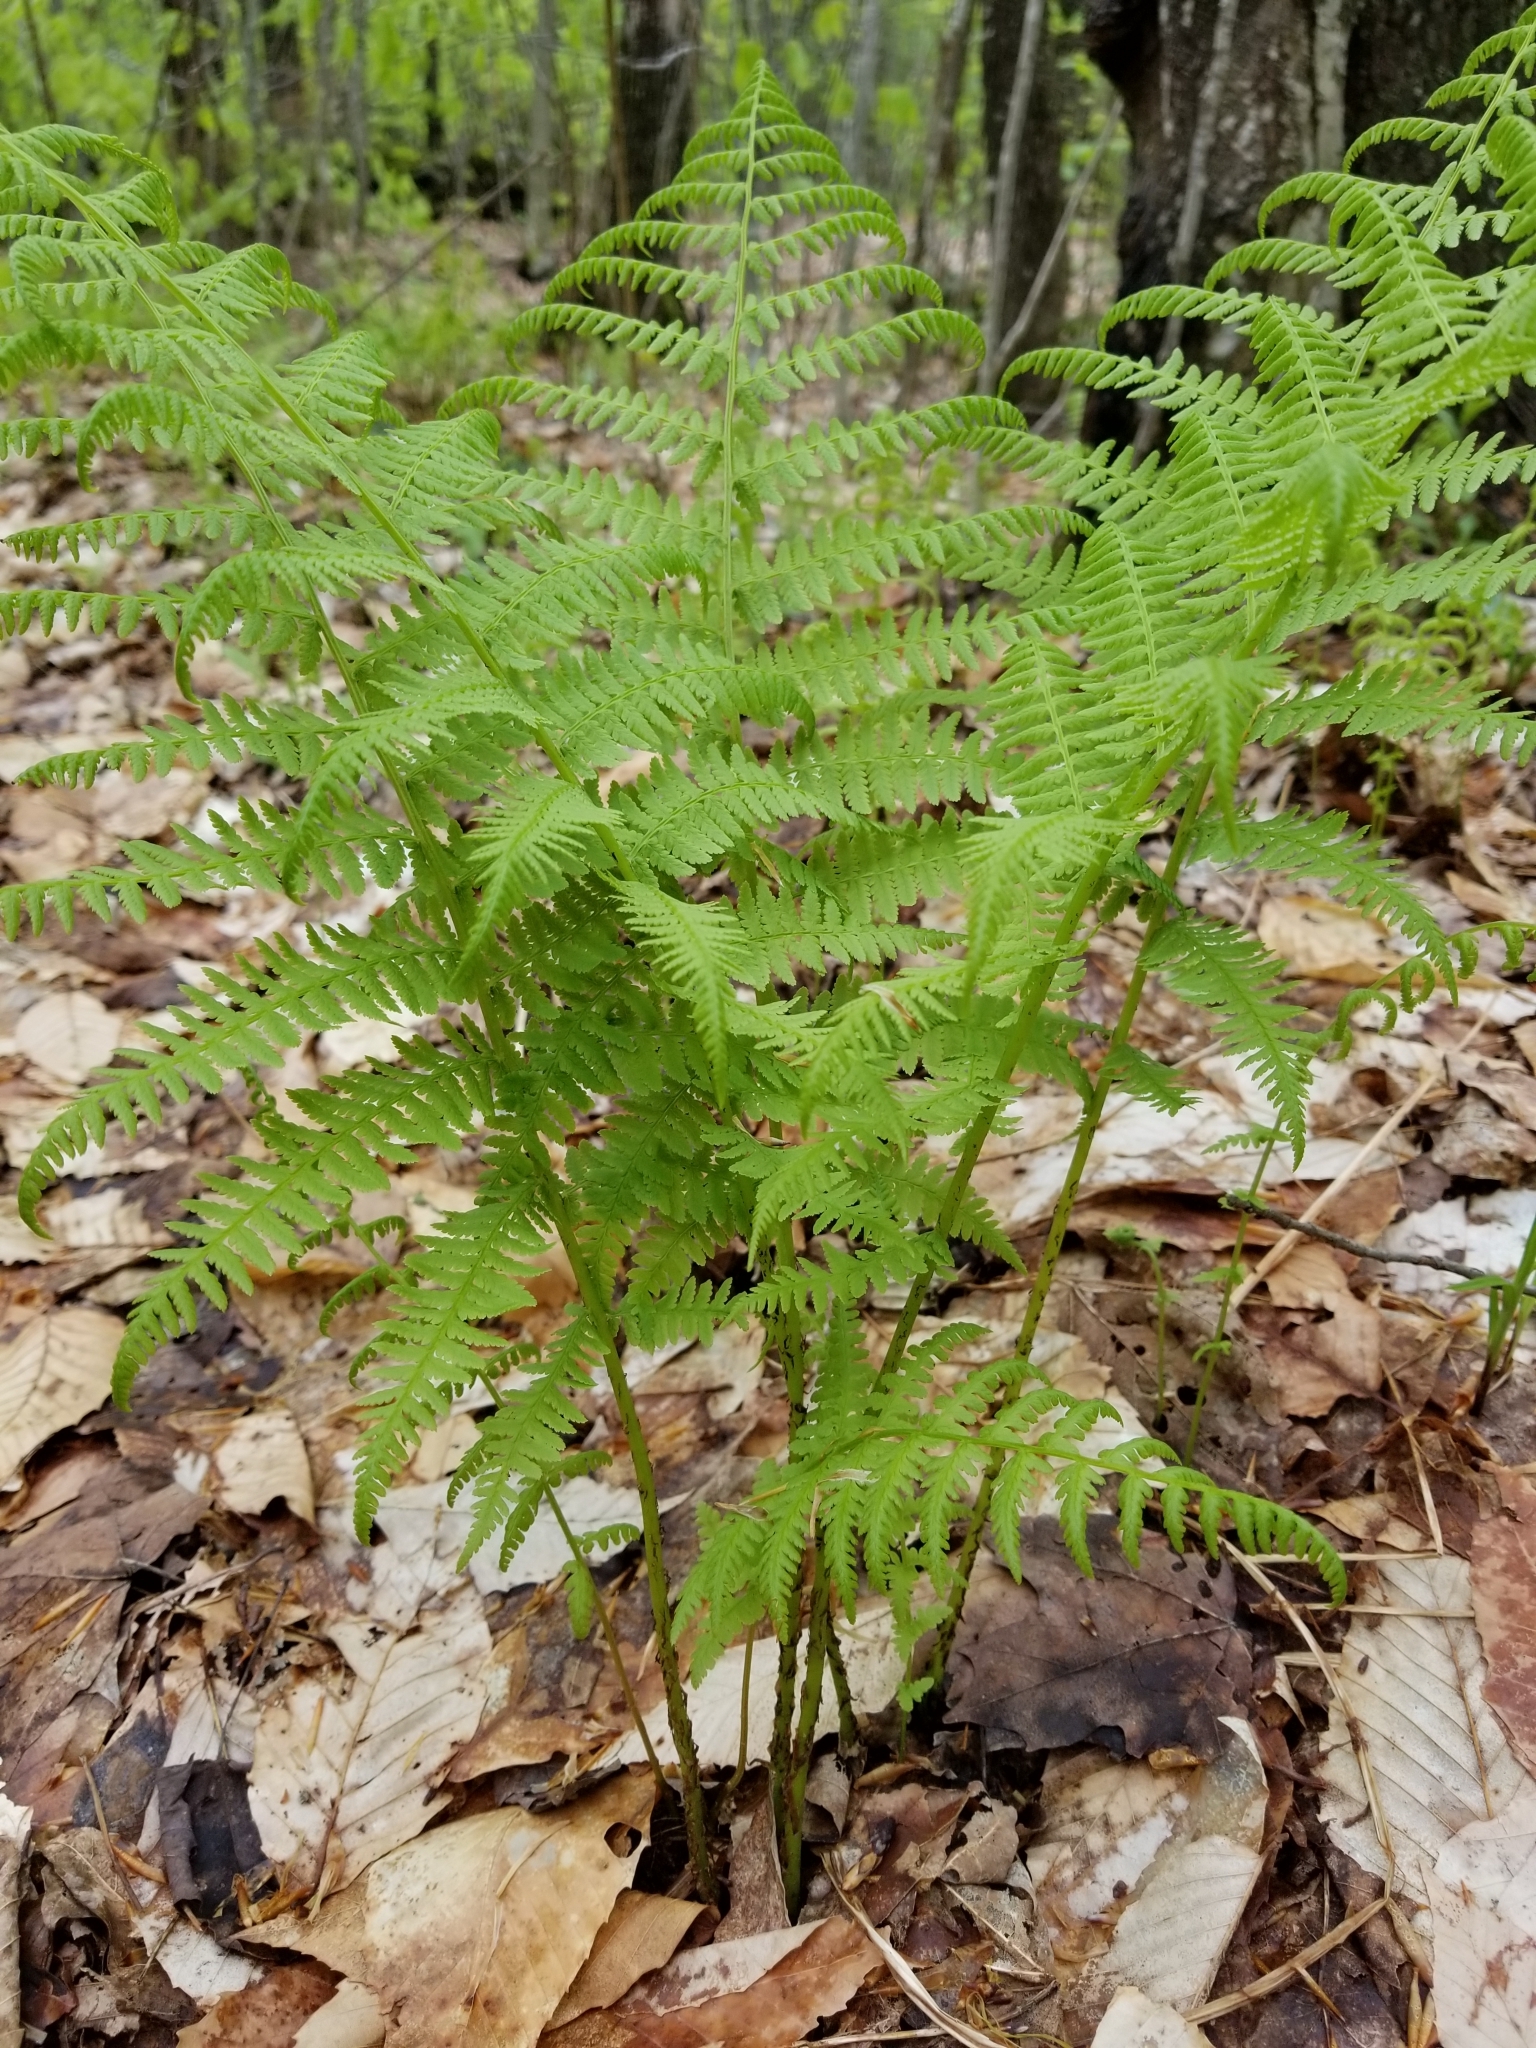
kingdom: Plantae
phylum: Tracheophyta
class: Polypodiopsida
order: Polypodiales
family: Athyriaceae
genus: Athyrium
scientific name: Athyrium angustum
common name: Northern lady fern
